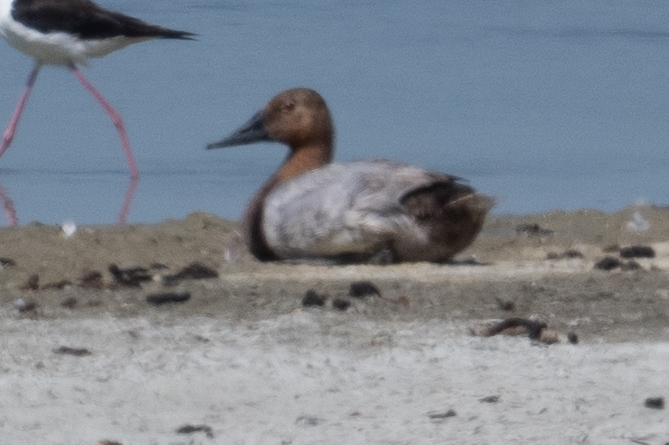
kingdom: Animalia
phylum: Chordata
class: Aves
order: Anseriformes
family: Anatidae
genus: Aythya
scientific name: Aythya valisineria
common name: Canvasback
